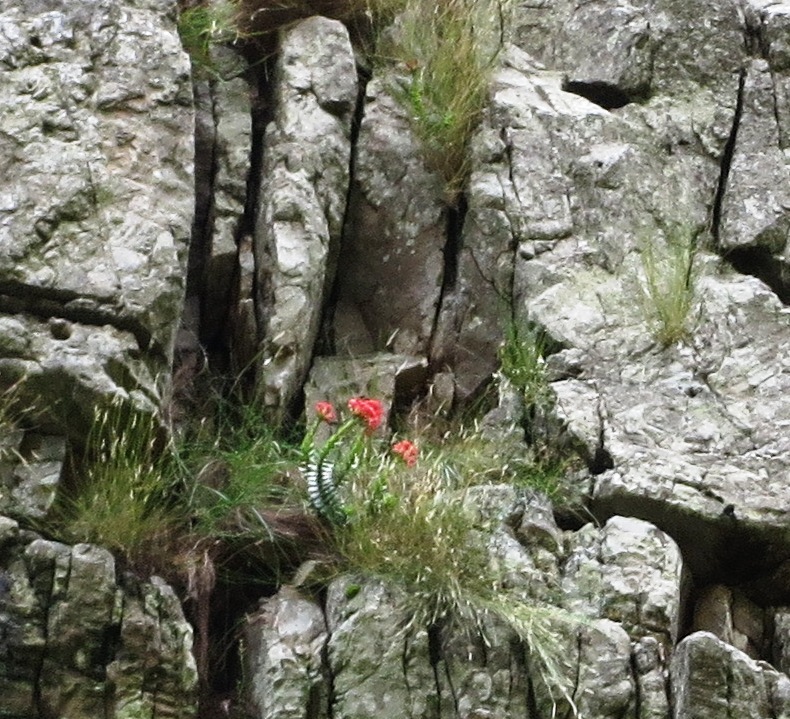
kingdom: Plantae
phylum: Tracheophyta
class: Magnoliopsida
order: Saxifragales
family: Crassulaceae
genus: Crassula
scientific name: Crassula coccinea
